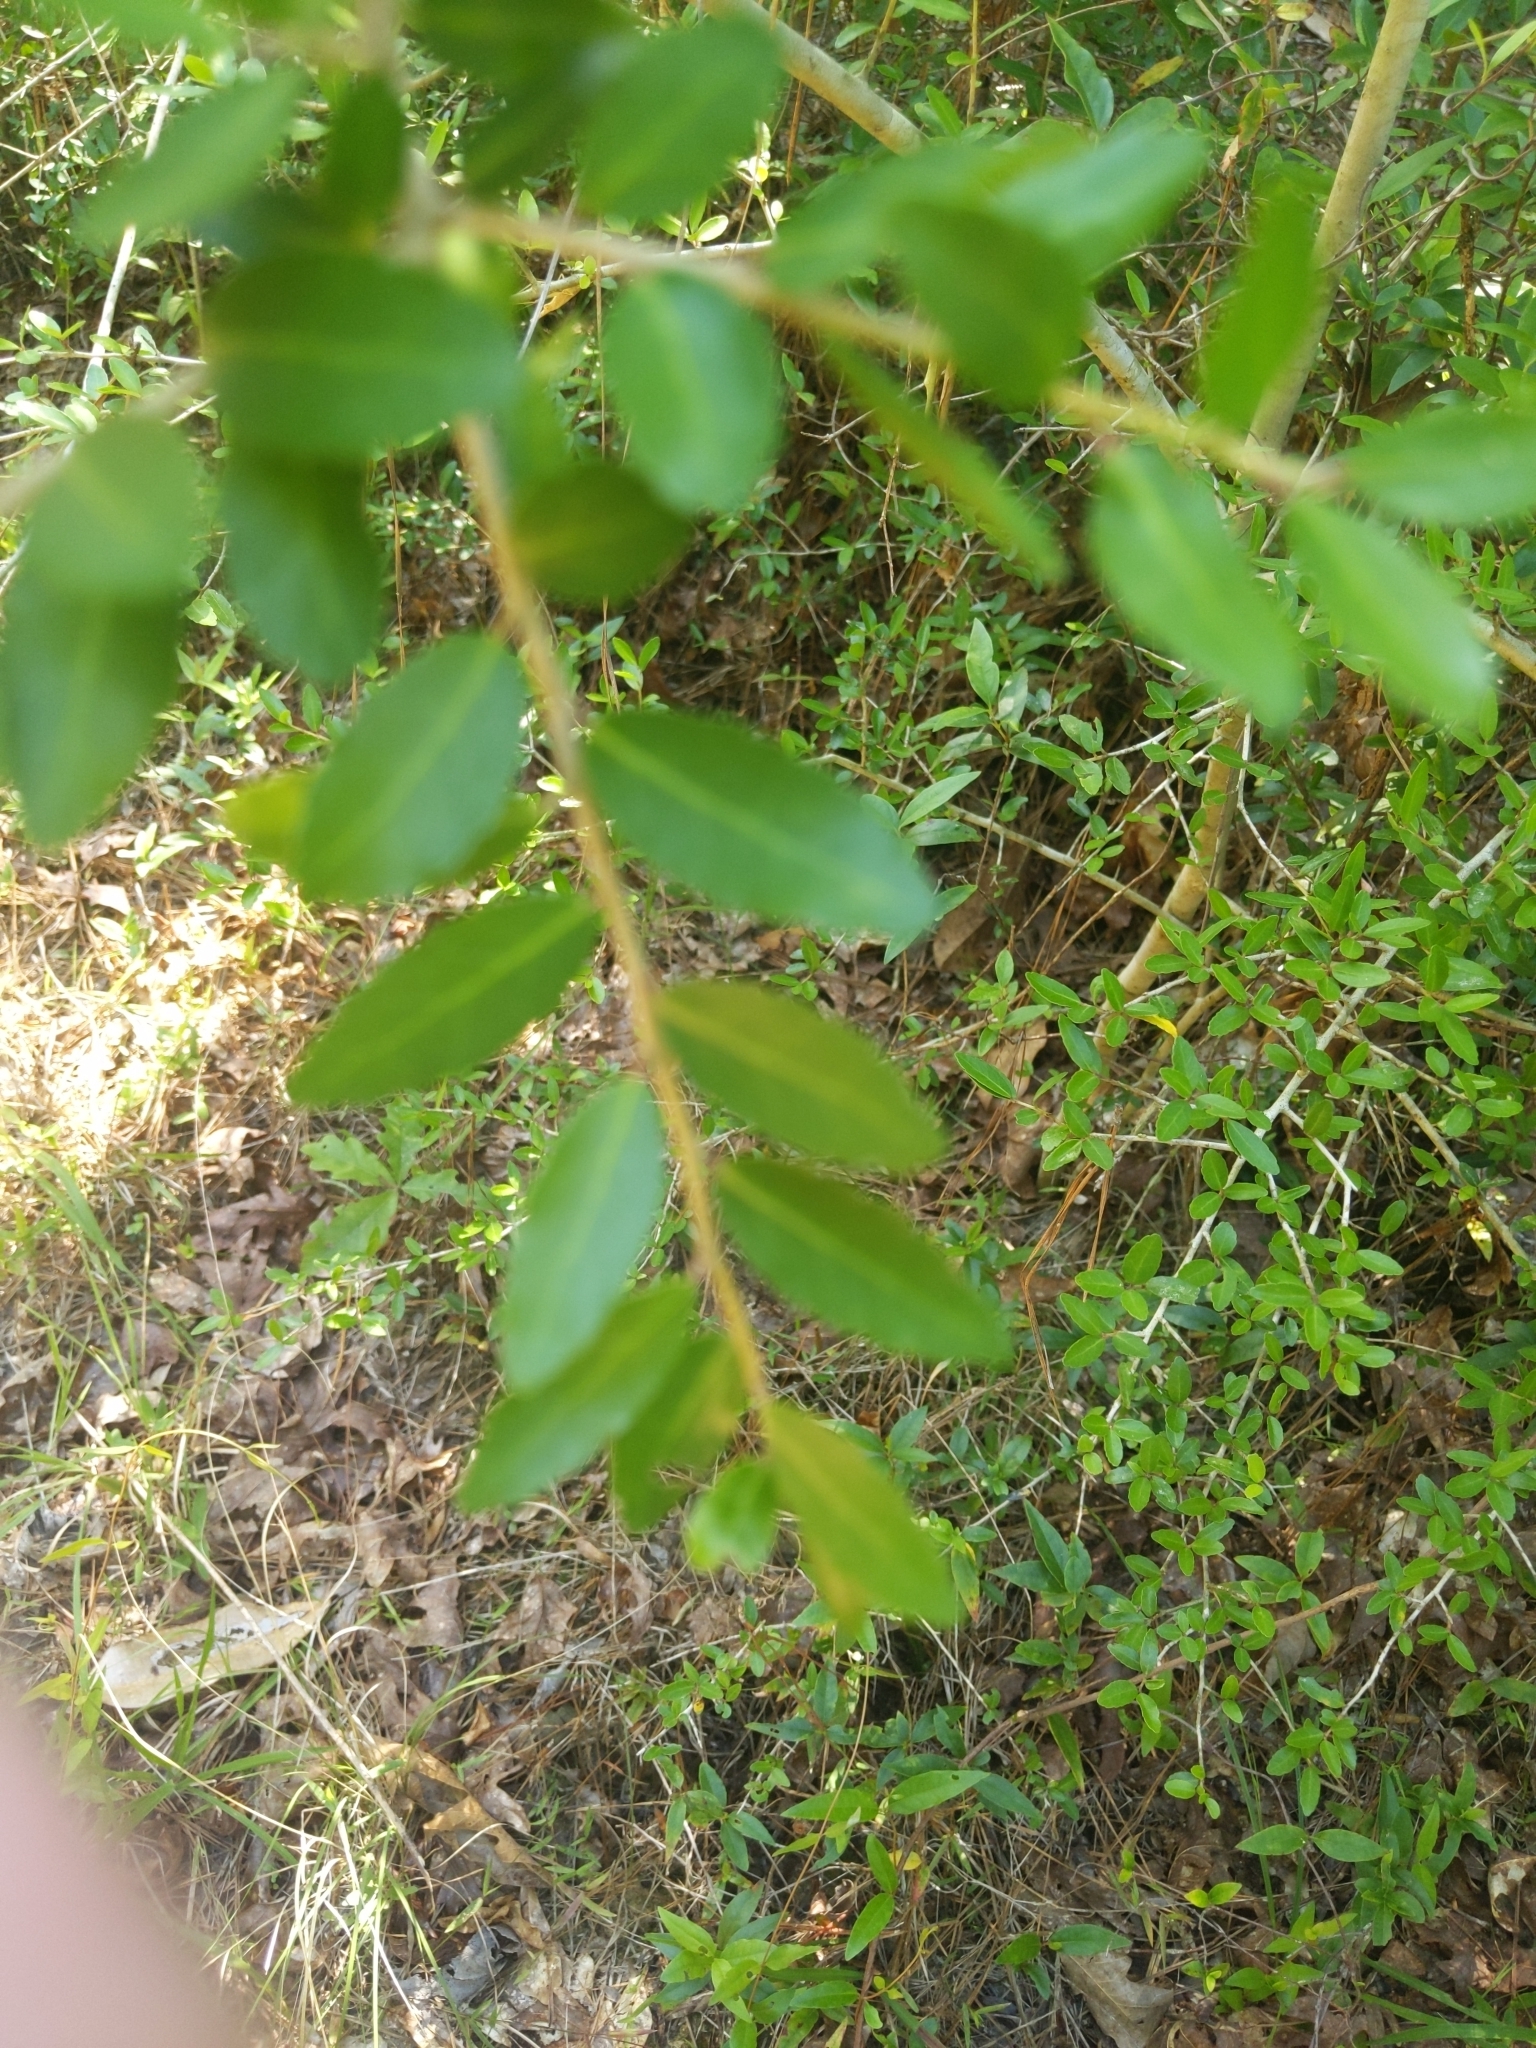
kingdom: Plantae
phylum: Tracheophyta
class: Magnoliopsida
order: Aquifoliales
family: Aquifoliaceae
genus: Ilex
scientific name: Ilex vomitoria
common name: Yaupon holly
